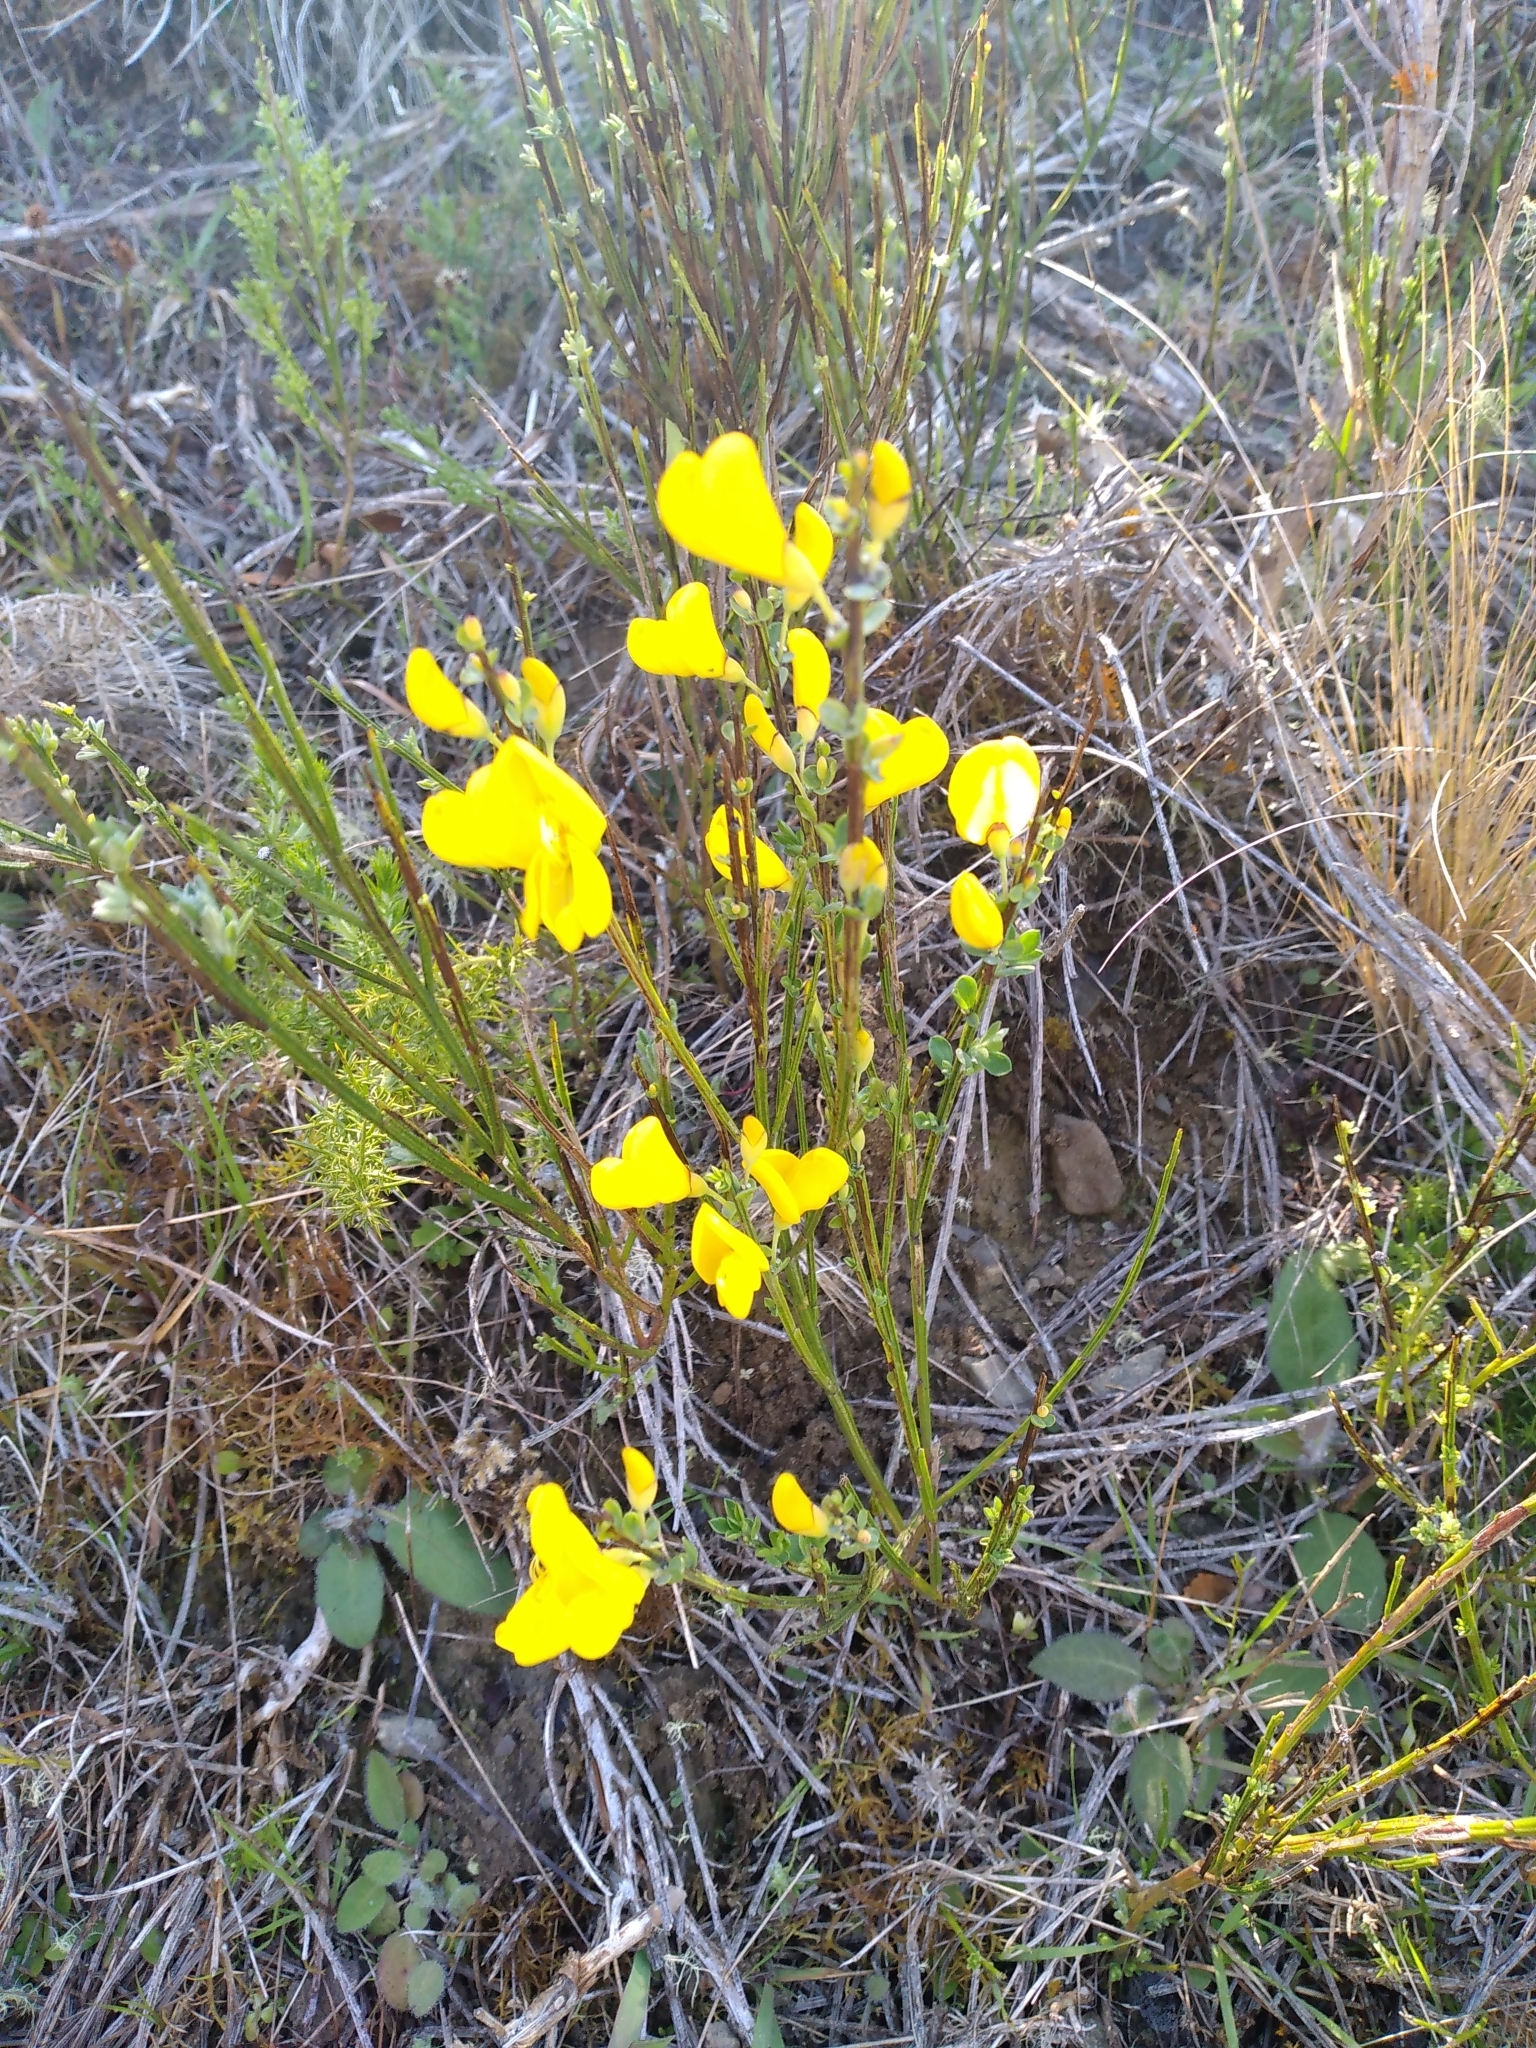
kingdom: Plantae
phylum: Tracheophyta
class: Magnoliopsida
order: Fabales
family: Fabaceae
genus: Cytisus
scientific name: Cytisus scoparius
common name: Scotch broom
